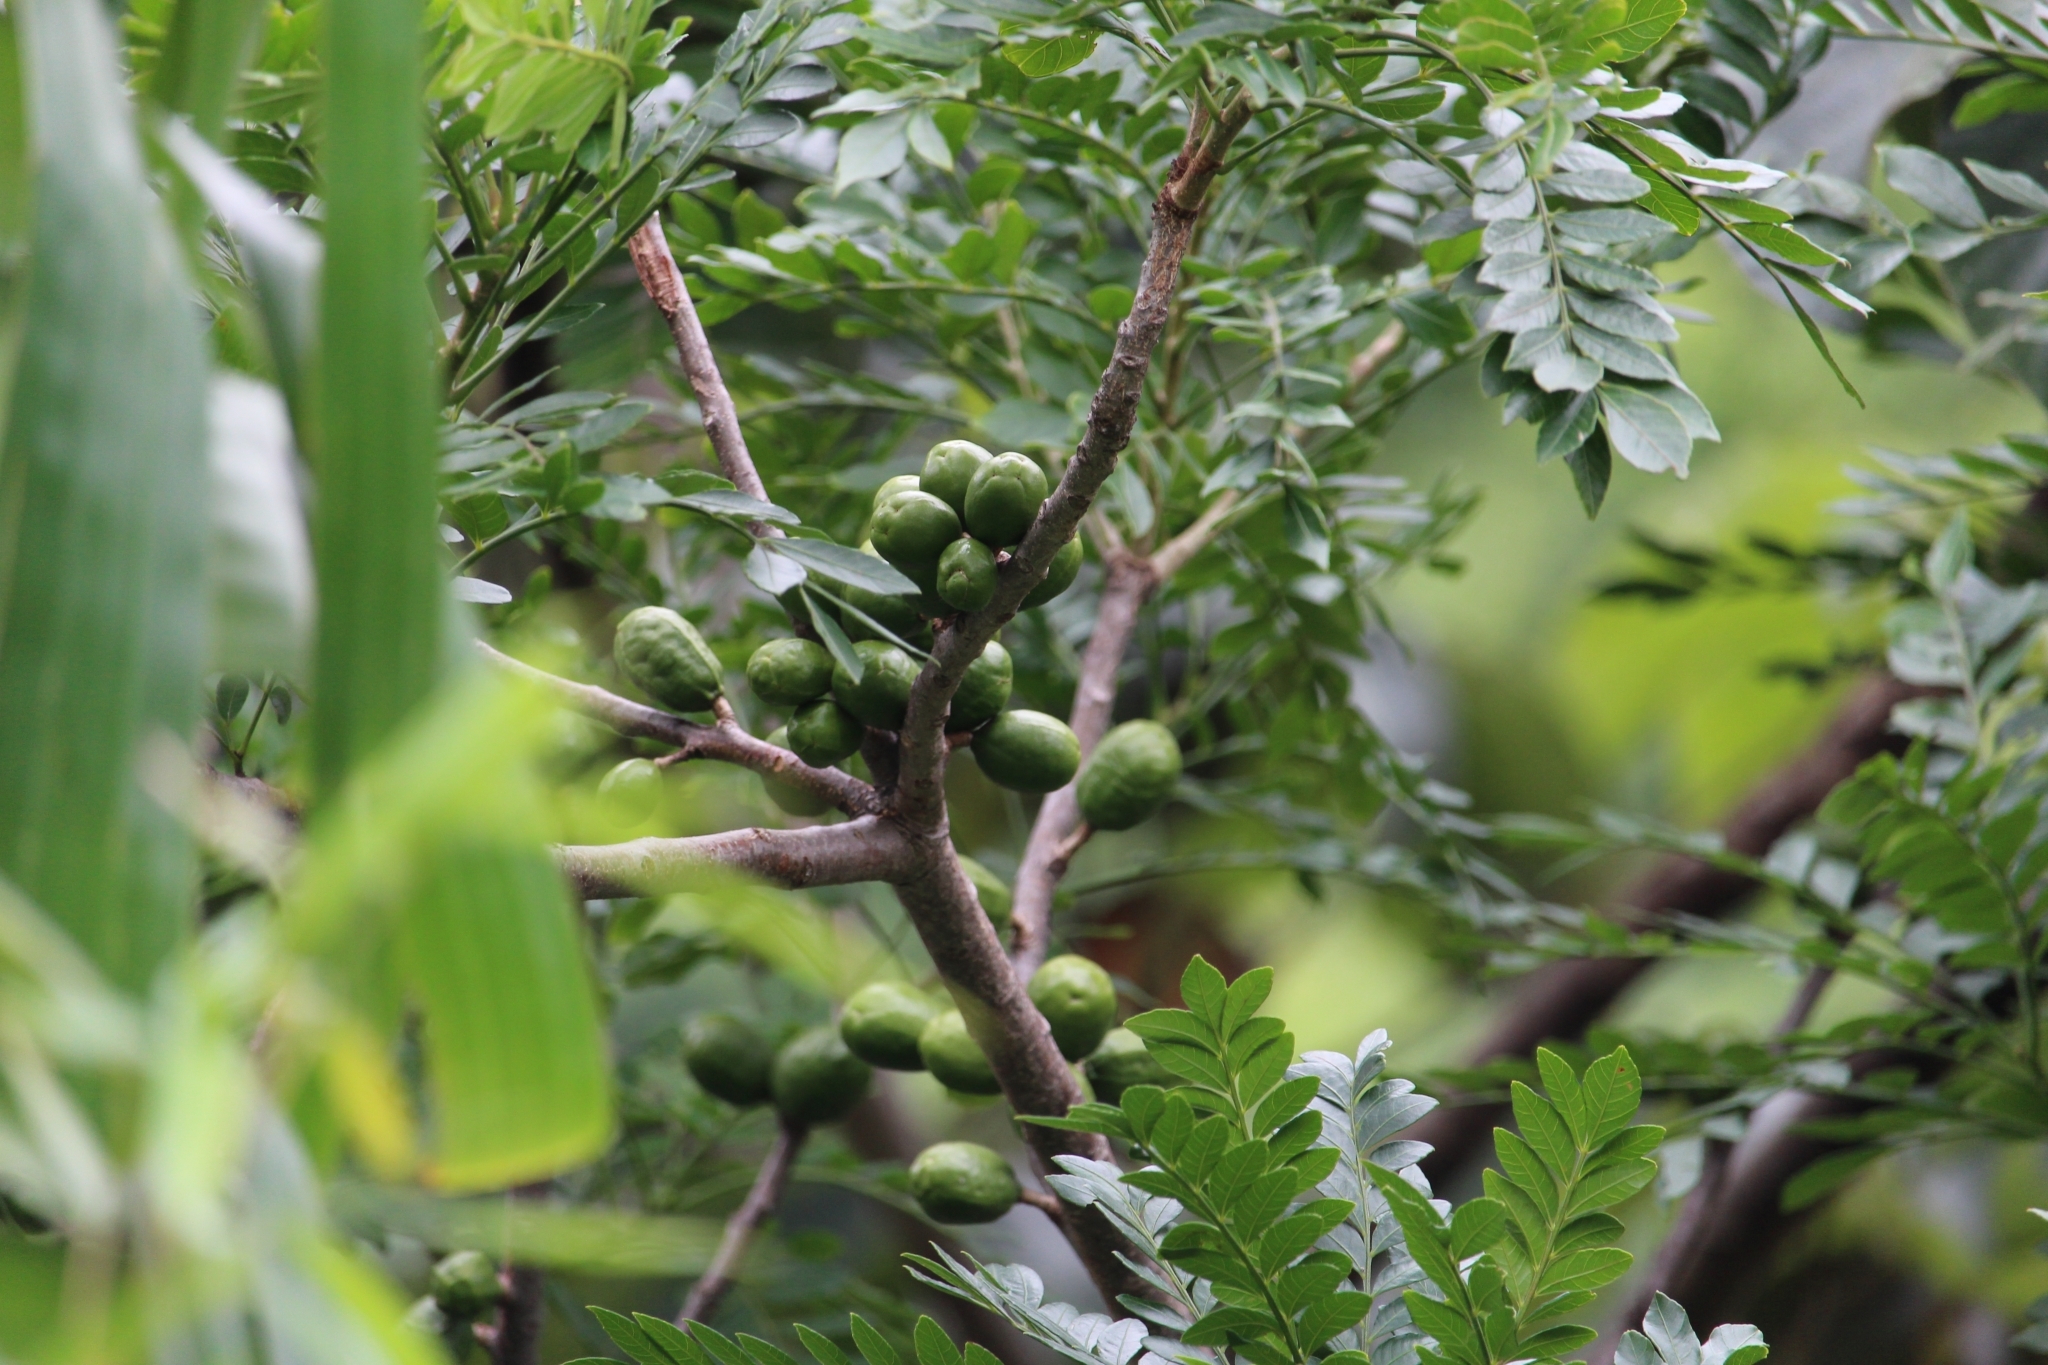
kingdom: Plantae
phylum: Tracheophyta
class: Magnoliopsida
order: Sapindales
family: Anacardiaceae
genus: Spondias
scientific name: Spondias purpurea
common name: Purple mombin
